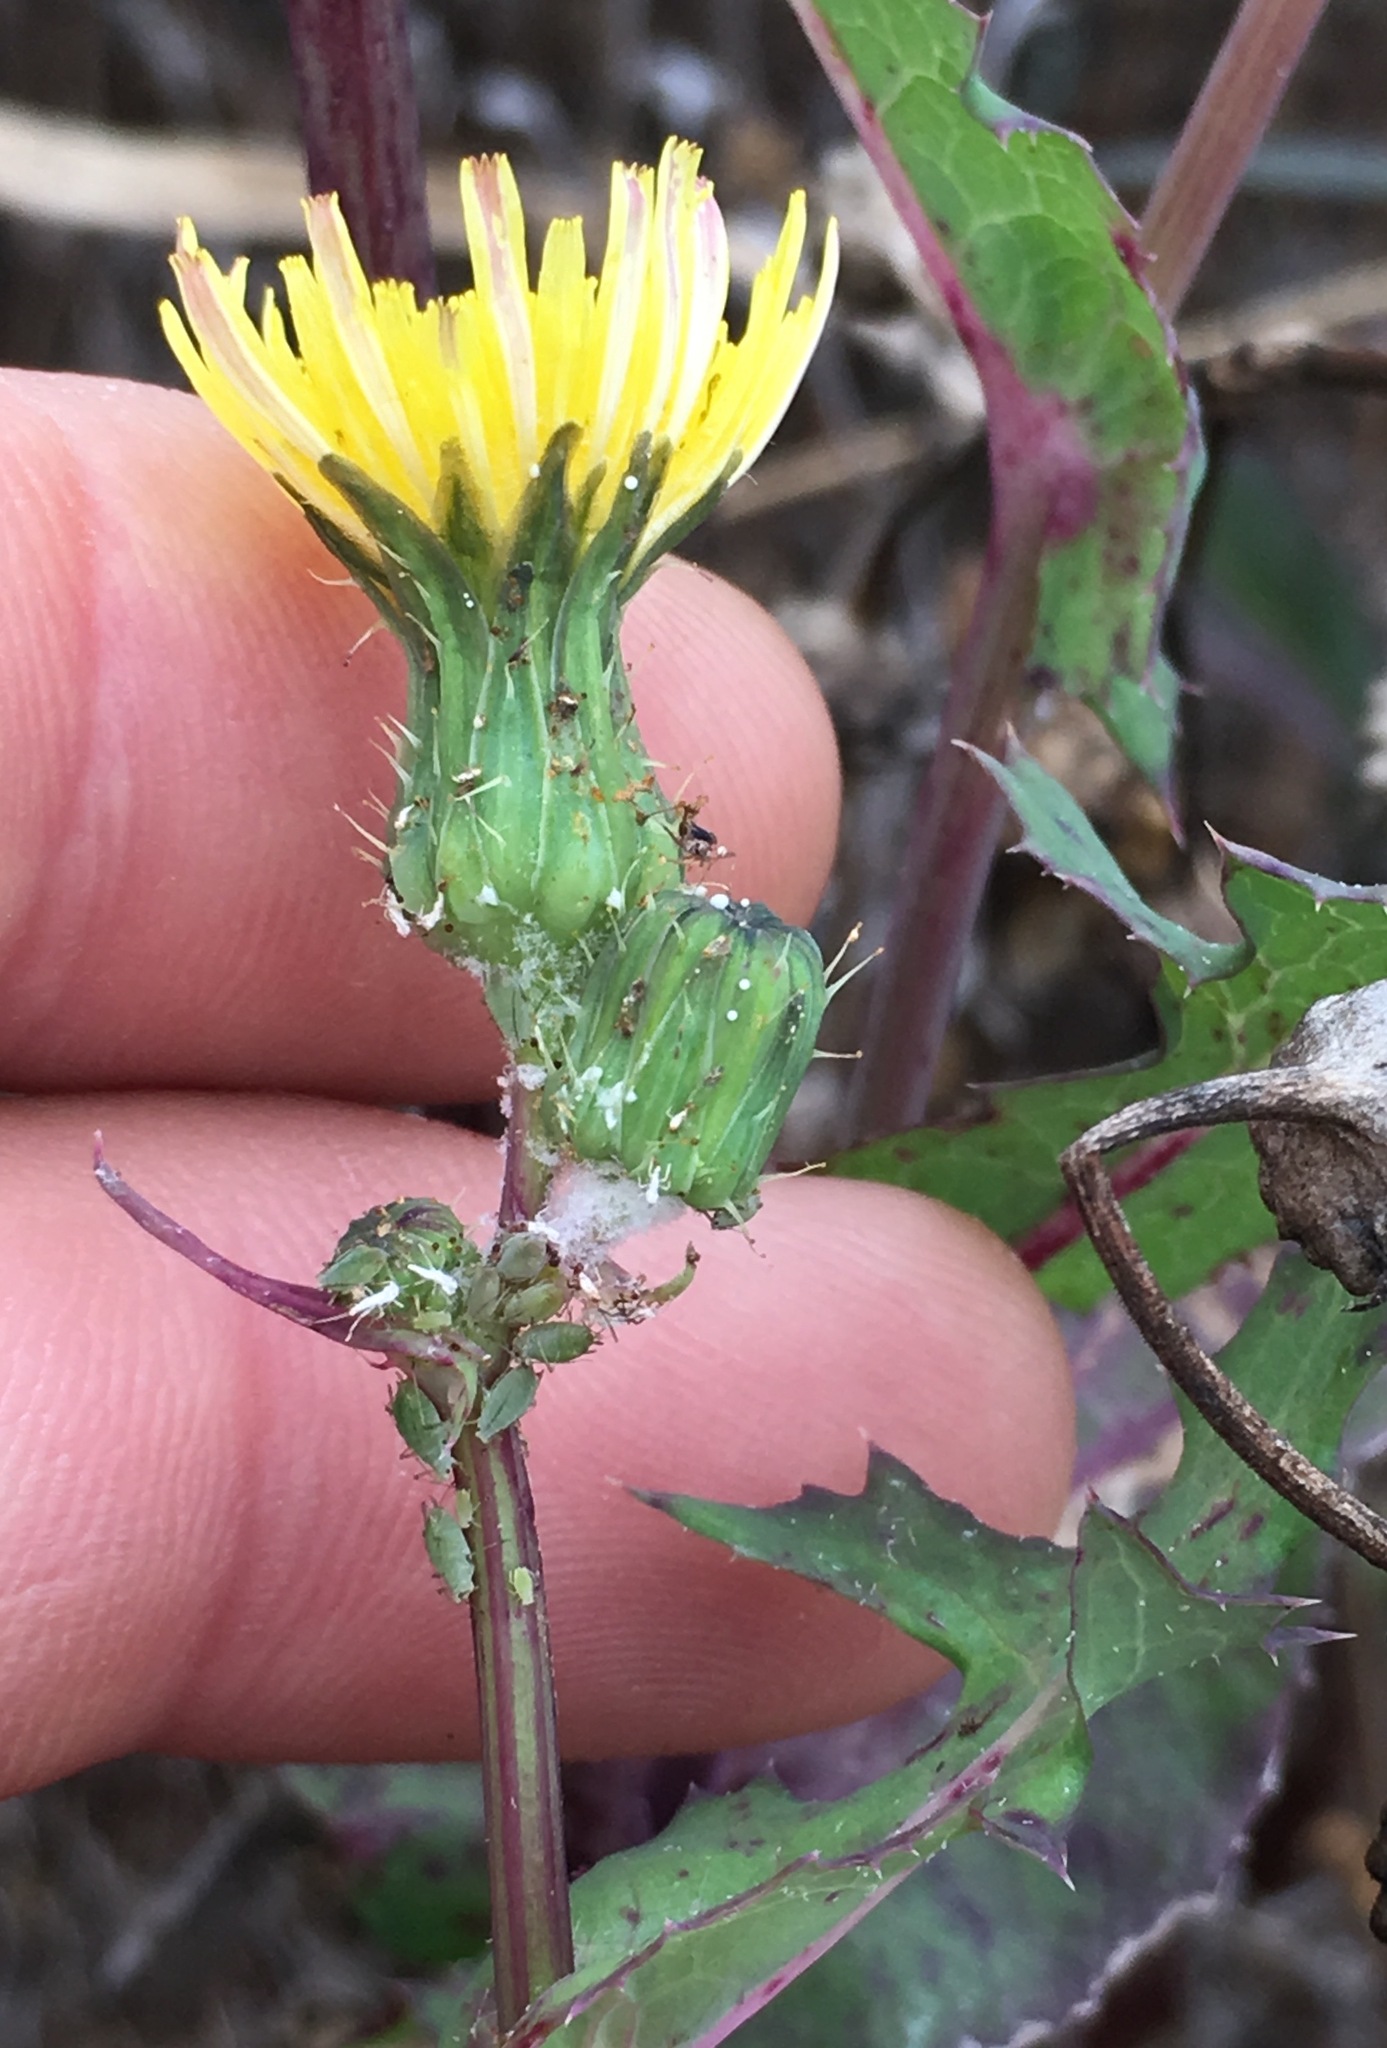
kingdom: Plantae
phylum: Tracheophyta
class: Magnoliopsida
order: Asterales
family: Asteraceae
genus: Sonchus
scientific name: Sonchus oleraceus
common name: Common sowthistle
